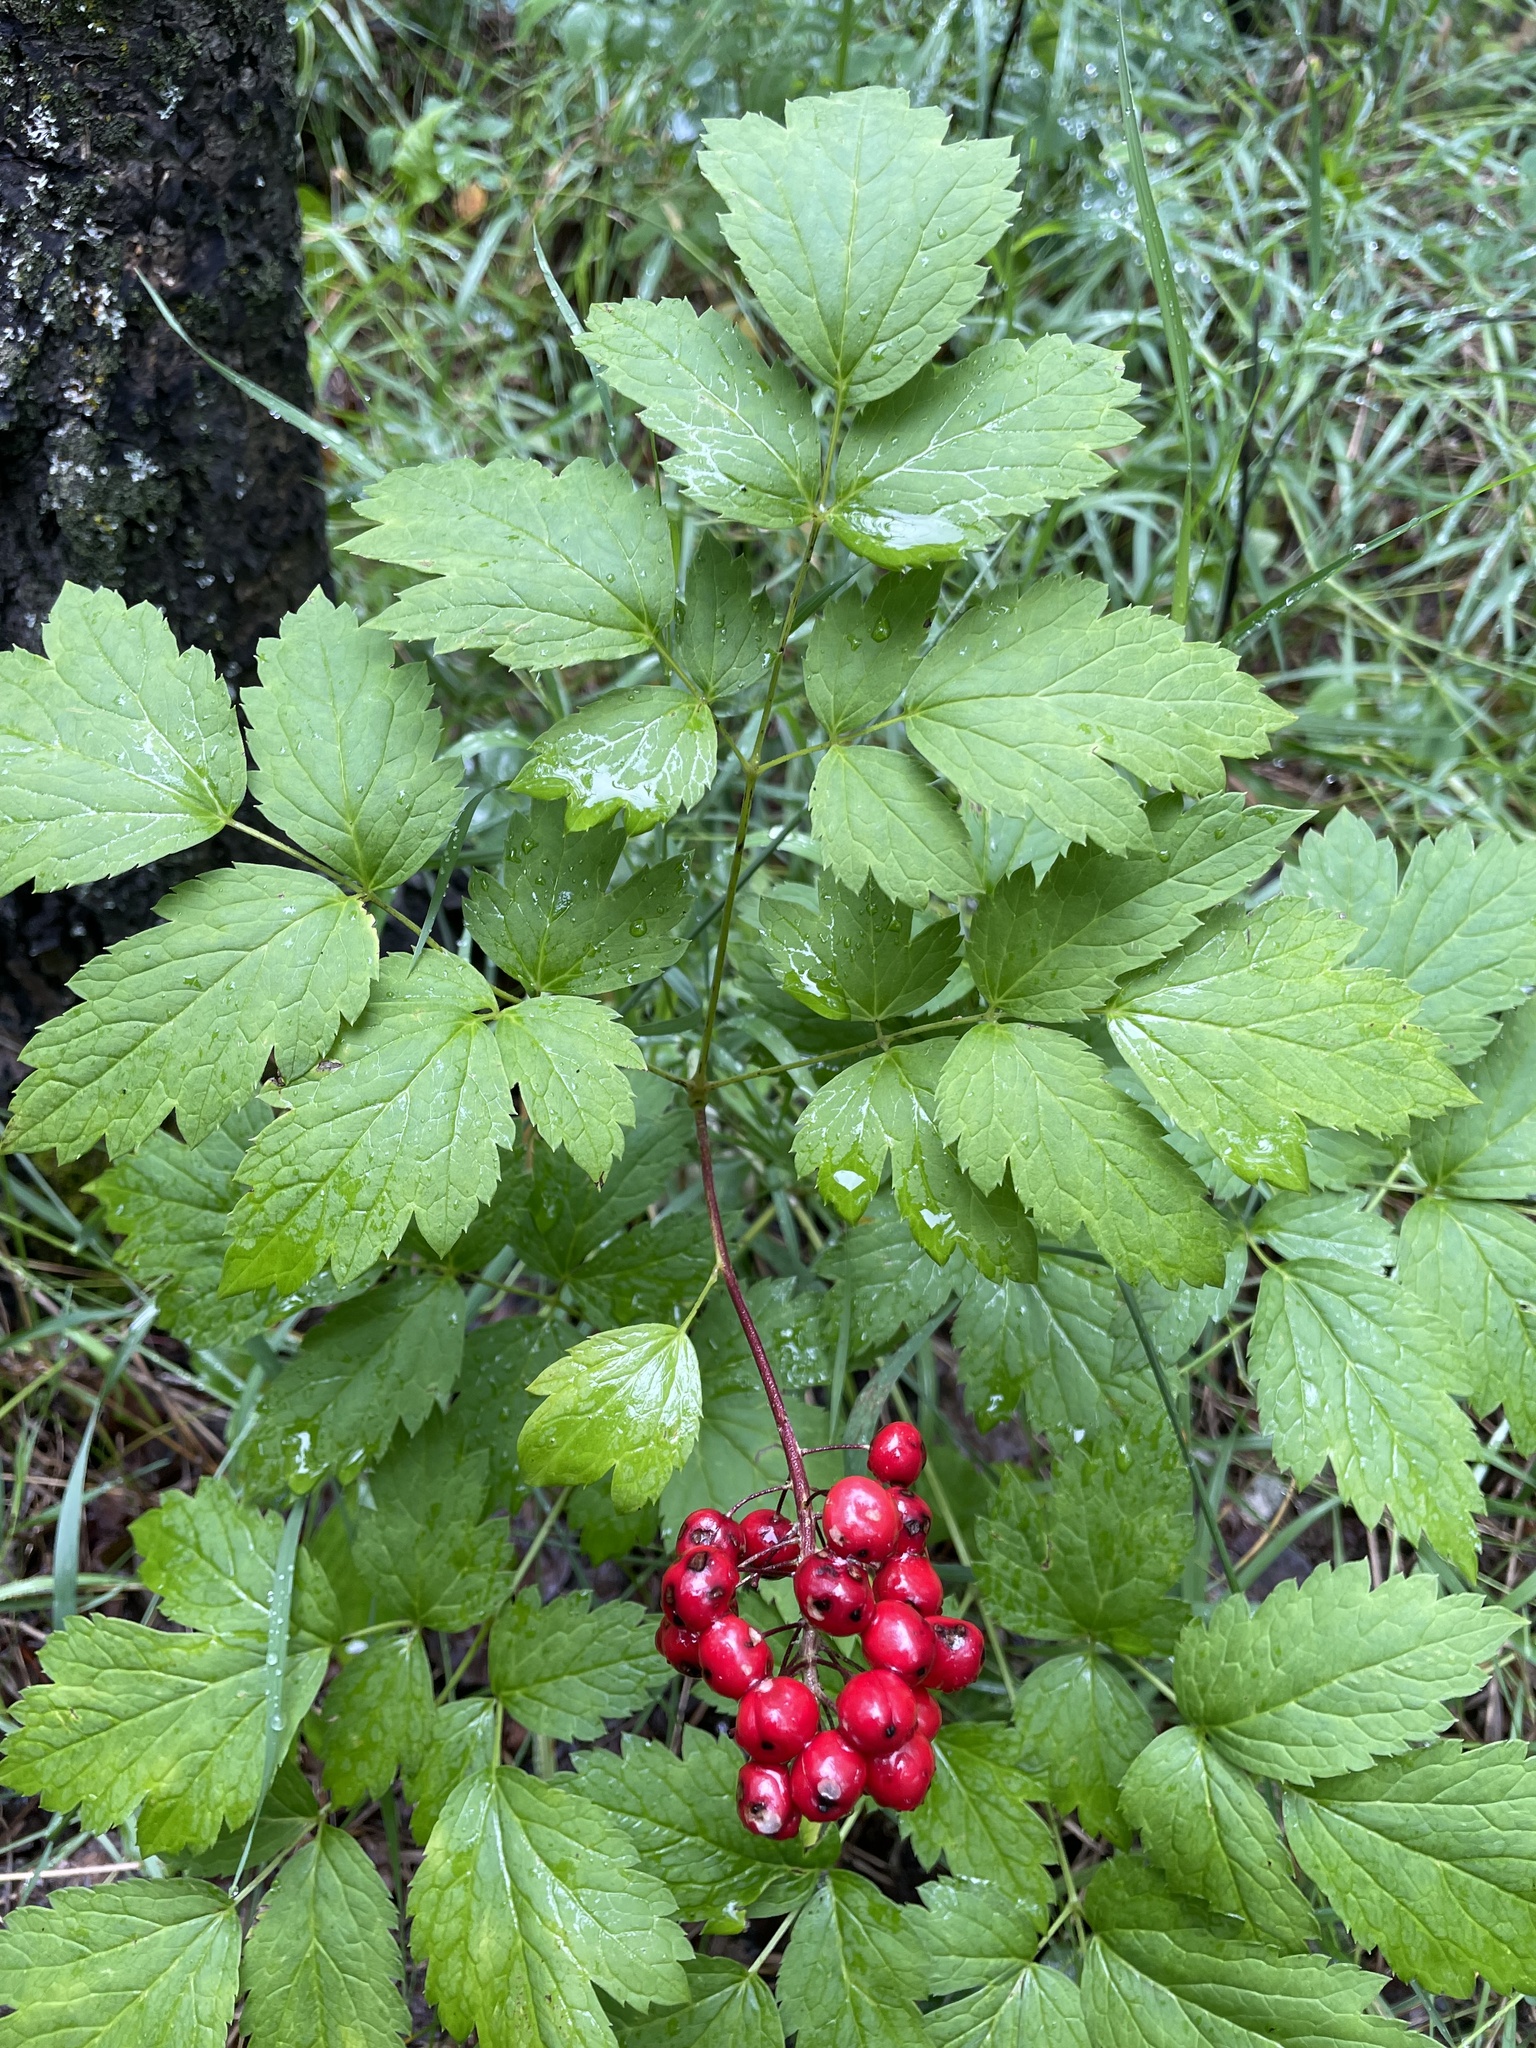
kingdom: Plantae
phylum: Tracheophyta
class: Magnoliopsida
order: Ranunculales
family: Ranunculaceae
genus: Actaea
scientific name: Actaea rubra
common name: Red baneberry
